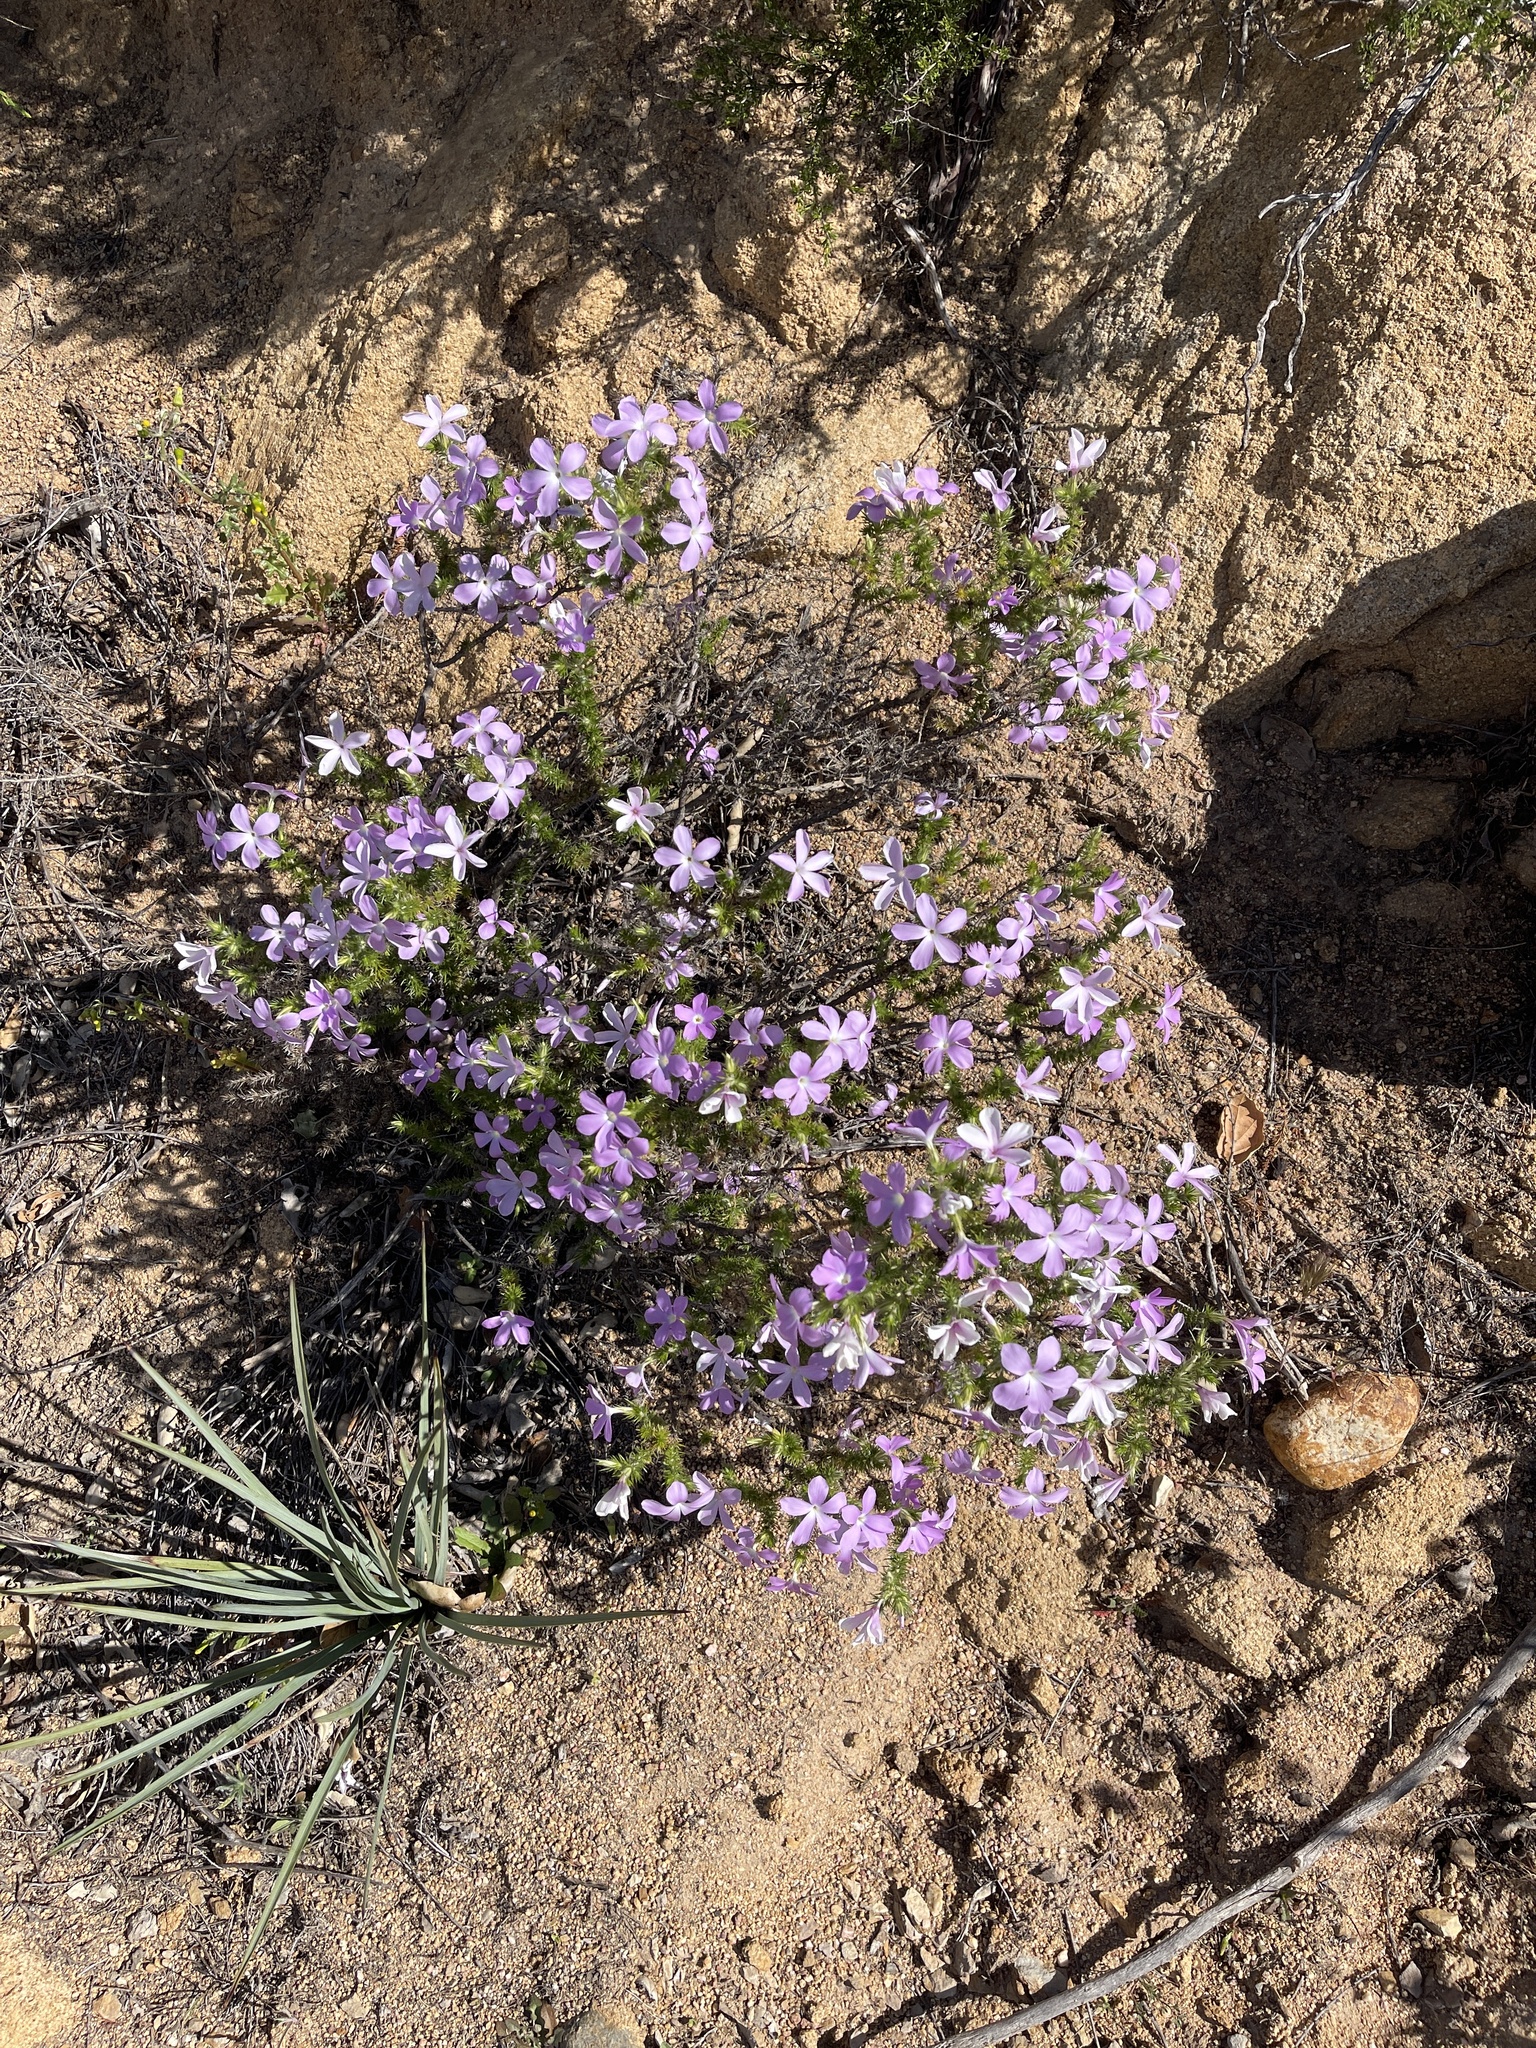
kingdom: Plantae
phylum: Tracheophyta
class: Magnoliopsida
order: Ericales
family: Polemoniaceae
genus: Linanthus
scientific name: Linanthus californicus
